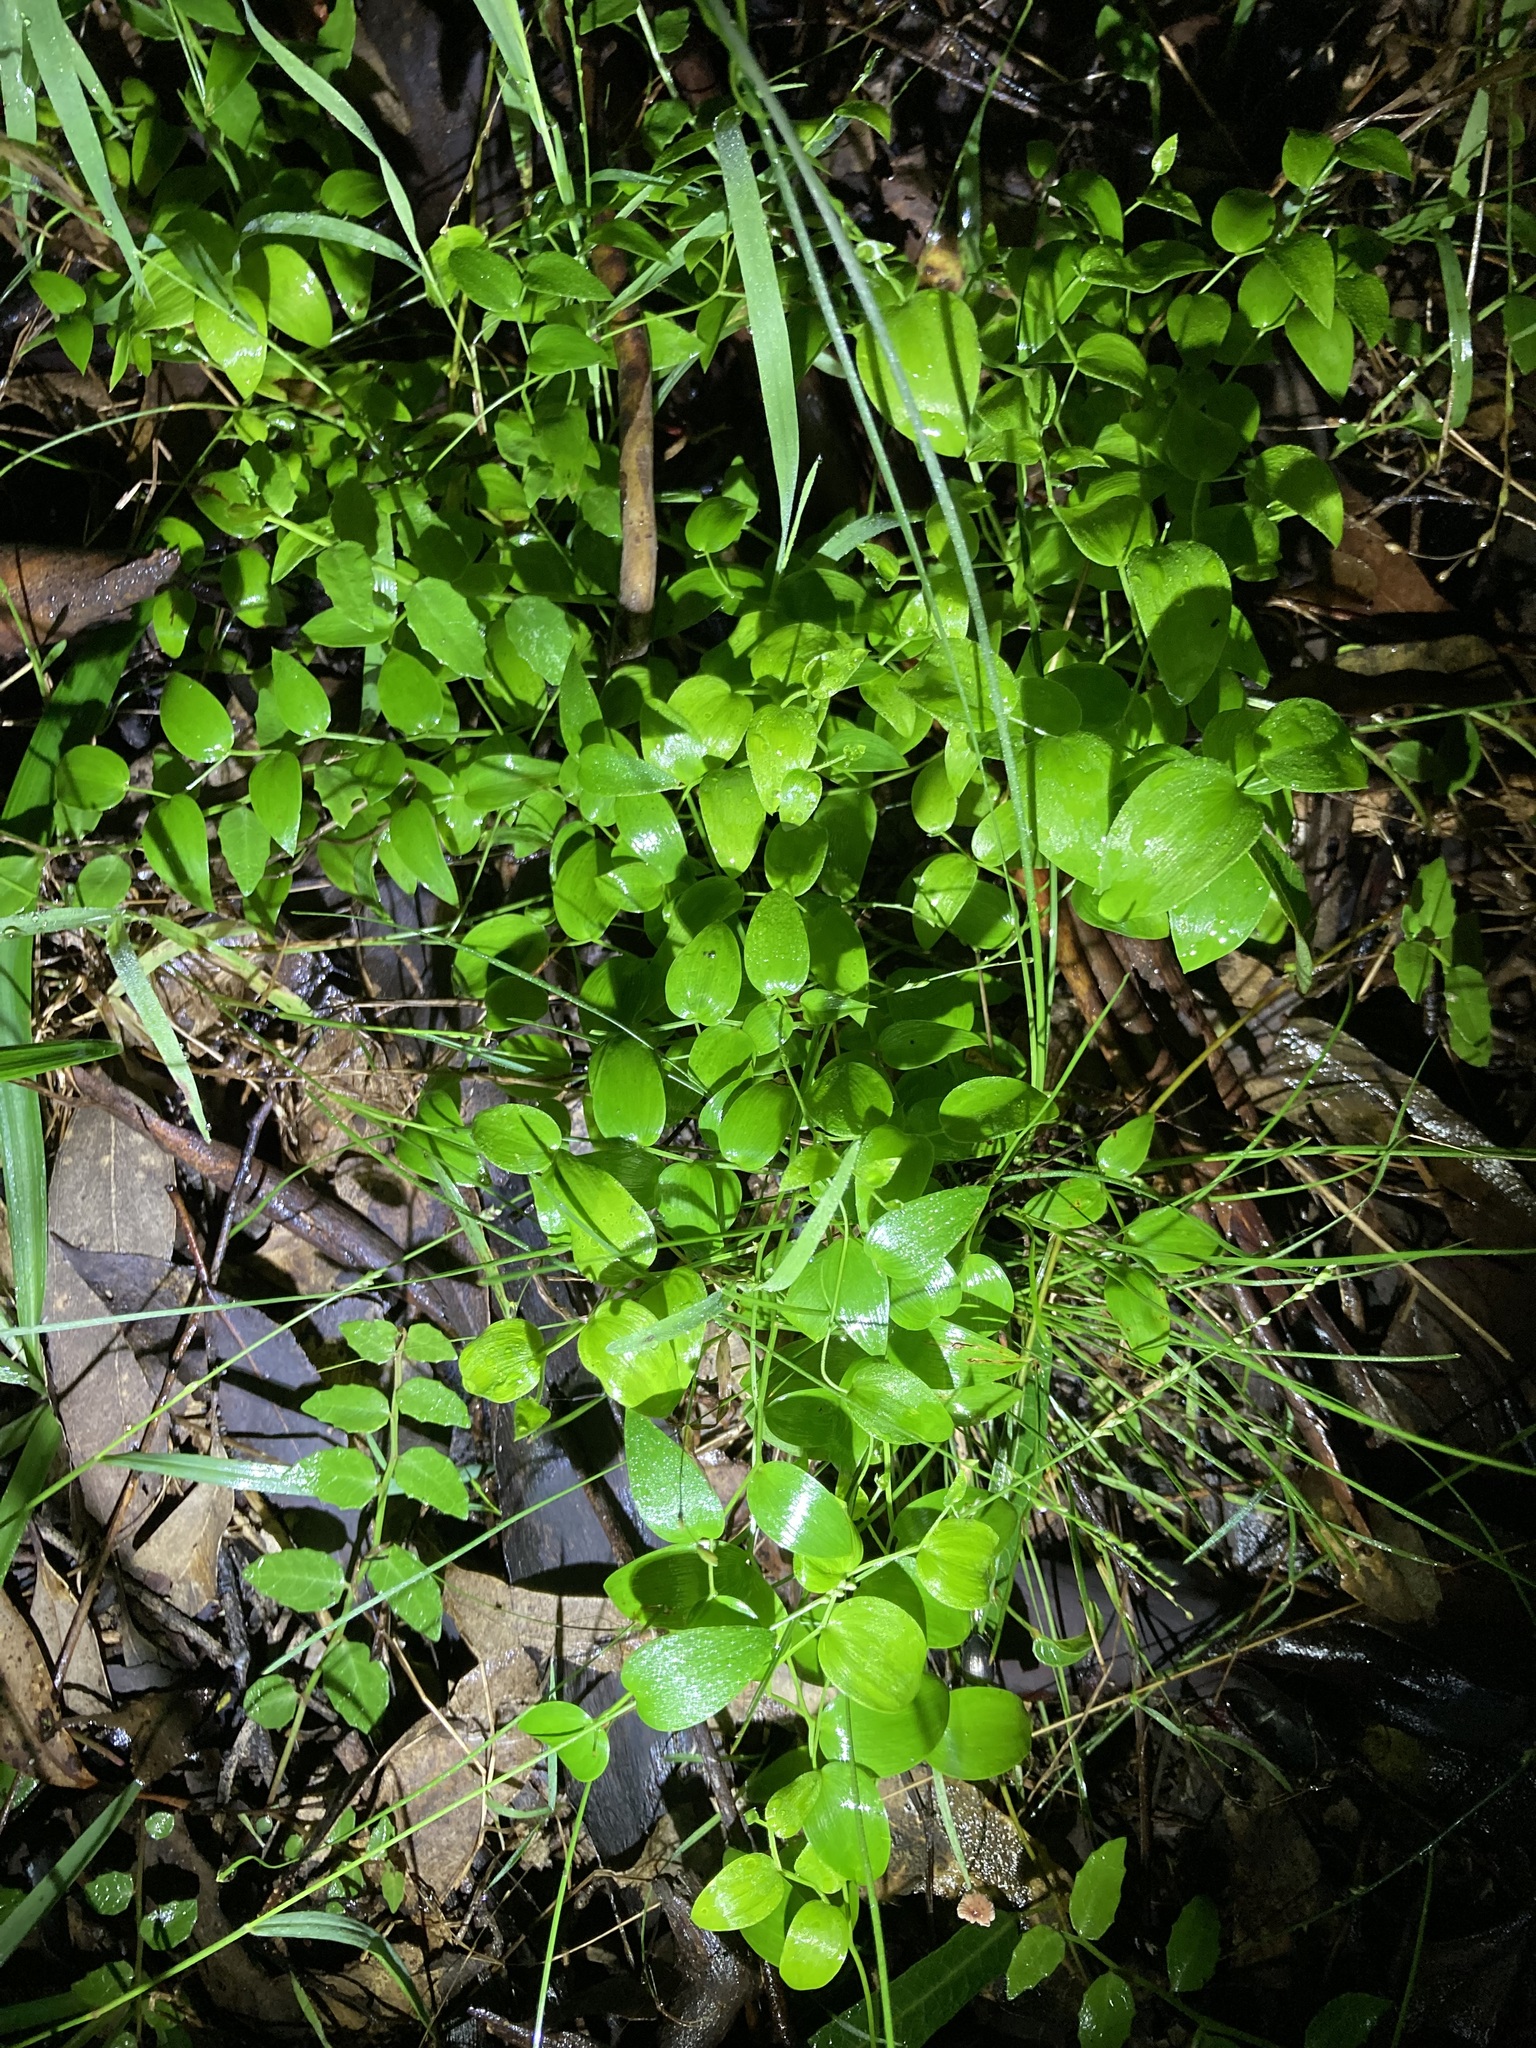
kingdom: Plantae
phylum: Tracheophyta
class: Liliopsida
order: Asparagales
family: Asparagaceae
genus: Asparagus
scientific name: Asparagus asparagoides
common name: African asparagus fern
